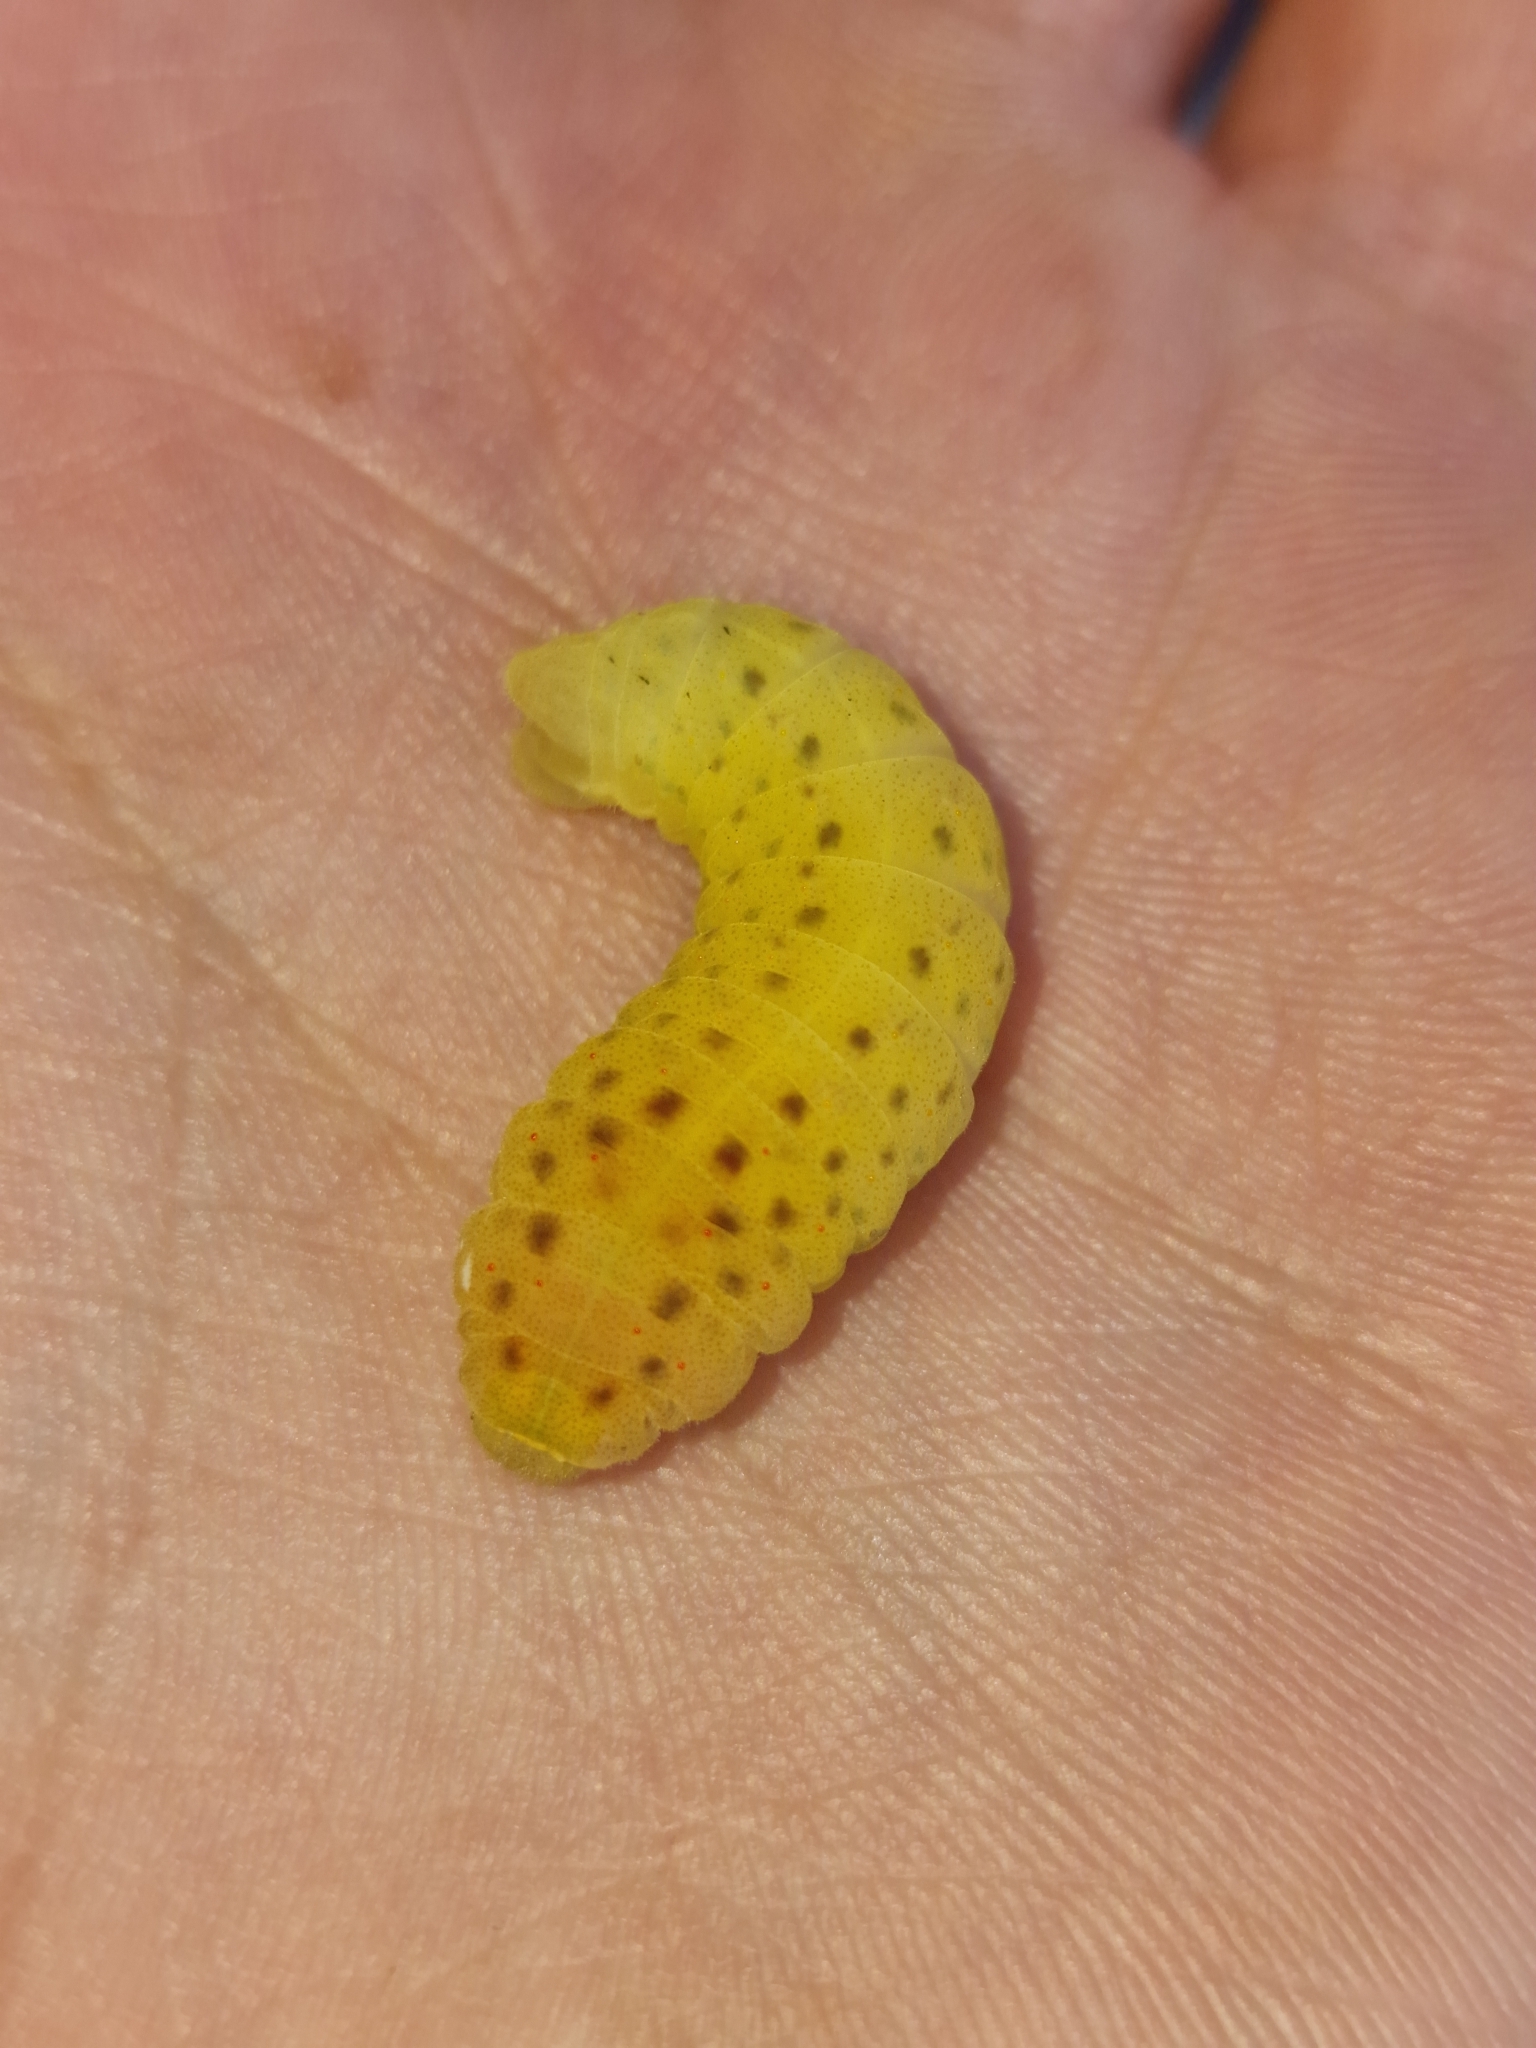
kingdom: Animalia
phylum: Arthropoda
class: Insecta
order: Lepidoptera
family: Papilionidae
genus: Iphiclides
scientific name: Iphiclides podalirius
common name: Scarce swallowtail
